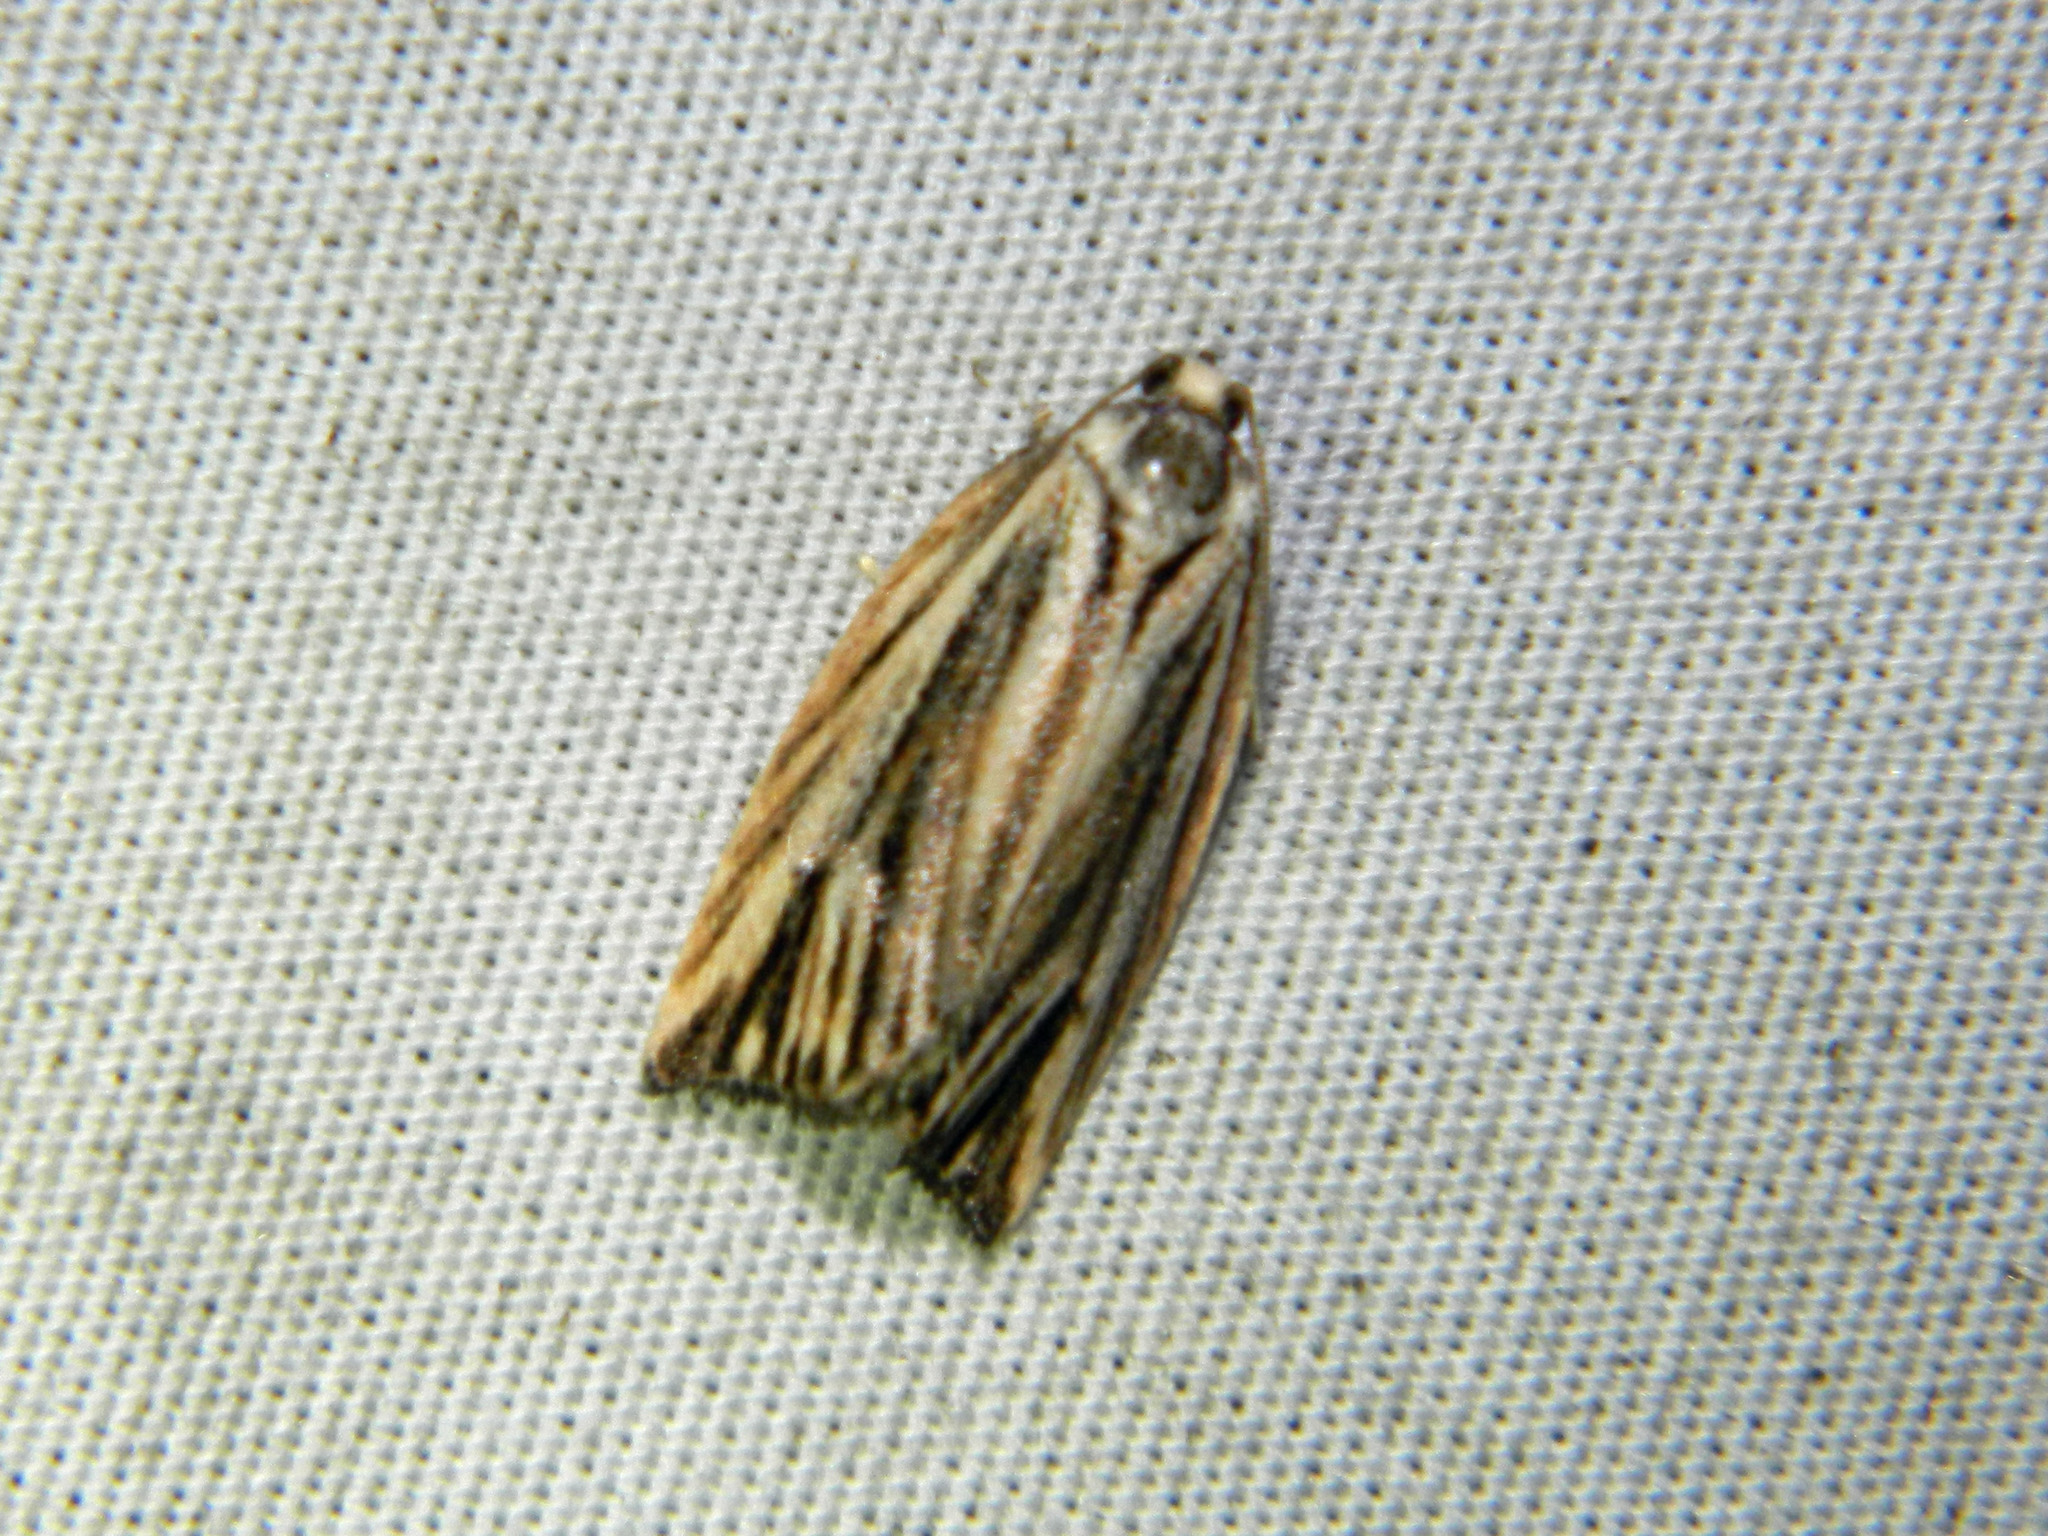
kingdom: Animalia
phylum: Arthropoda
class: Insecta
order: Lepidoptera
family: Tortricidae
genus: Archips
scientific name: Archips strianus
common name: Striated tortrix moth
